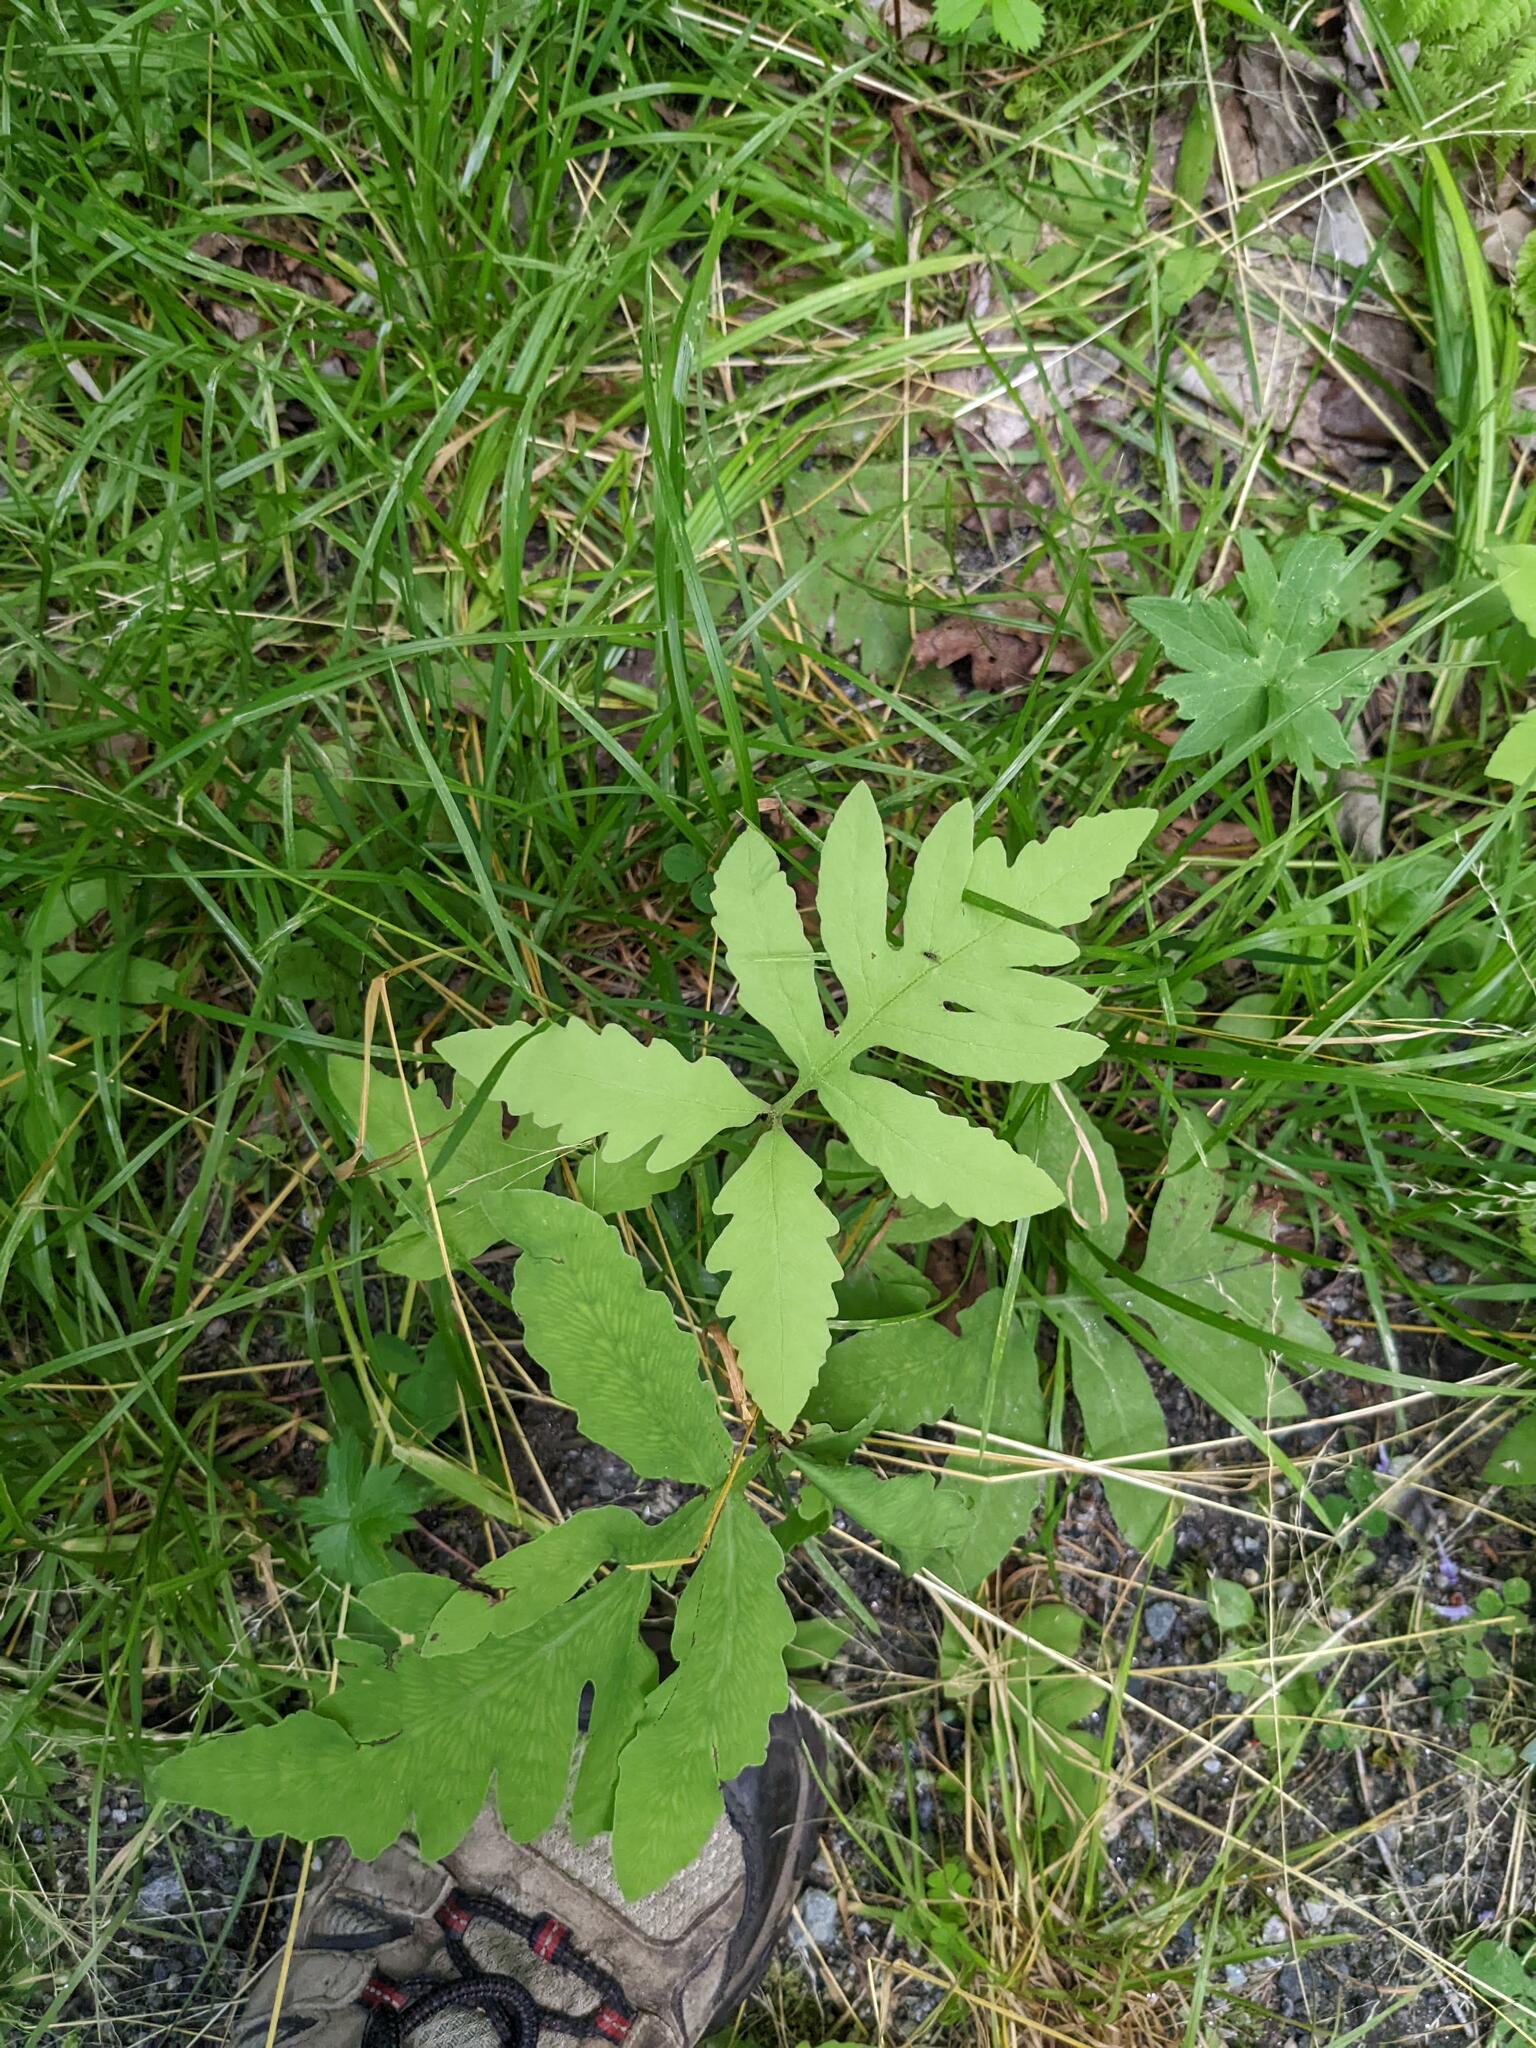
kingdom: Plantae
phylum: Tracheophyta
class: Polypodiopsida
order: Polypodiales
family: Onocleaceae
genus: Onoclea
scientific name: Onoclea sensibilis
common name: Sensitive fern
